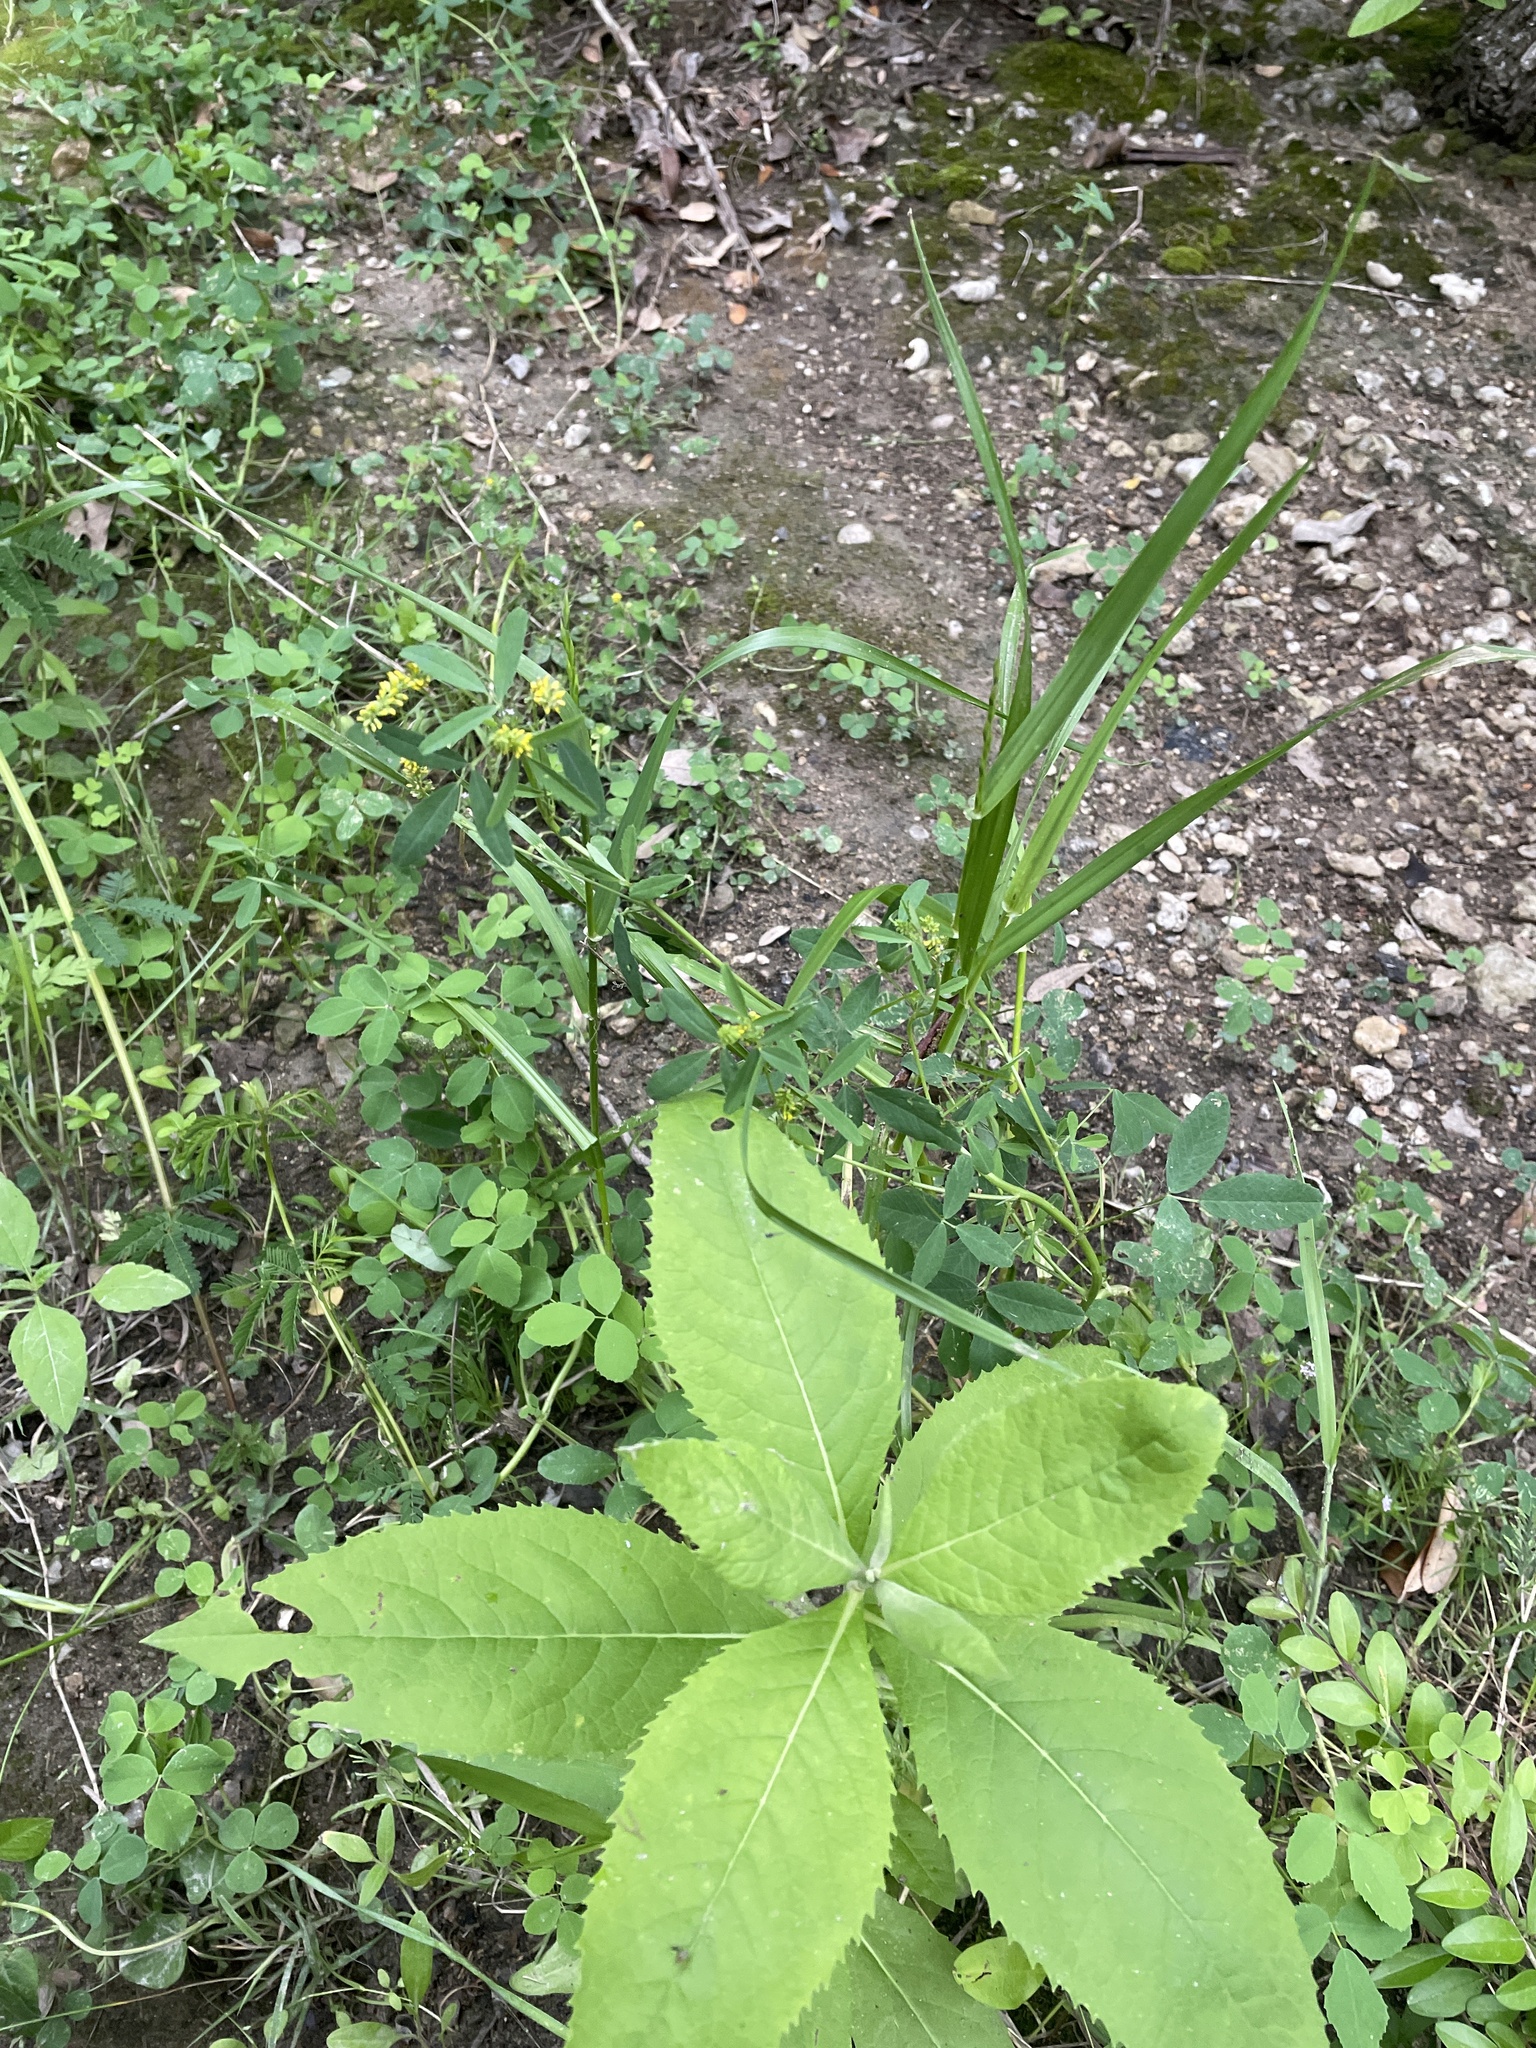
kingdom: Plantae
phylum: Tracheophyta
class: Magnoliopsida
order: Fabales
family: Fabaceae
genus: Melilotus
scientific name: Melilotus indicus
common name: Small melilot
